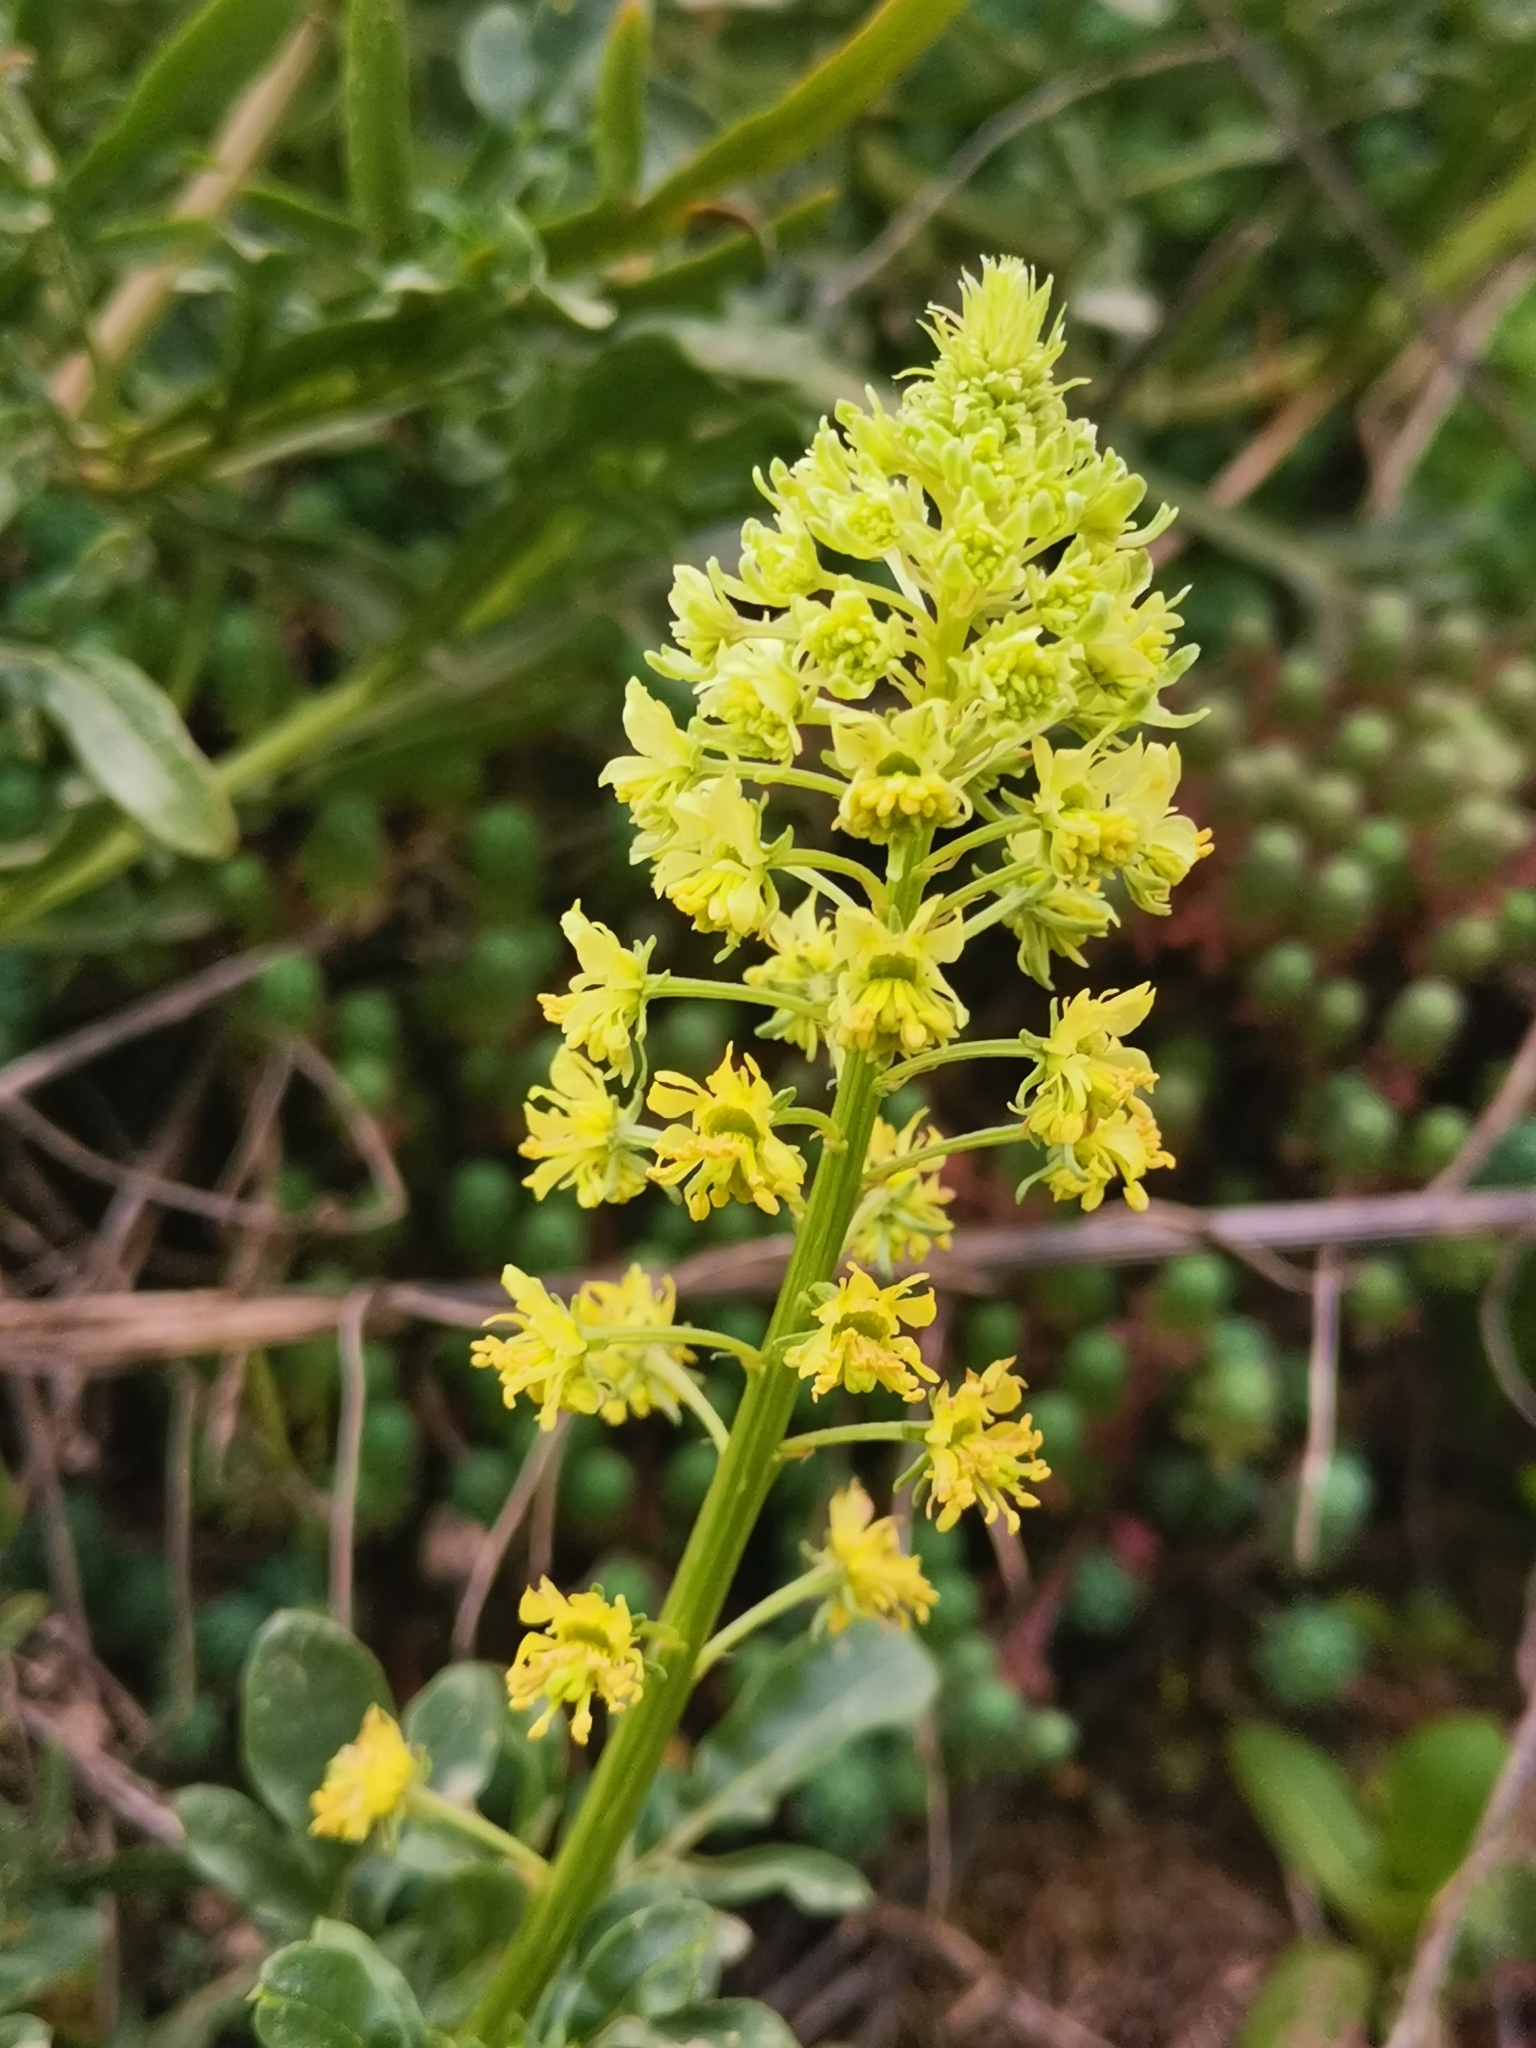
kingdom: Plantae
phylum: Tracheophyta
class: Magnoliopsida
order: Brassicales
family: Resedaceae
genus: Reseda
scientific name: Reseda lutea
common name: Wild mignonette
